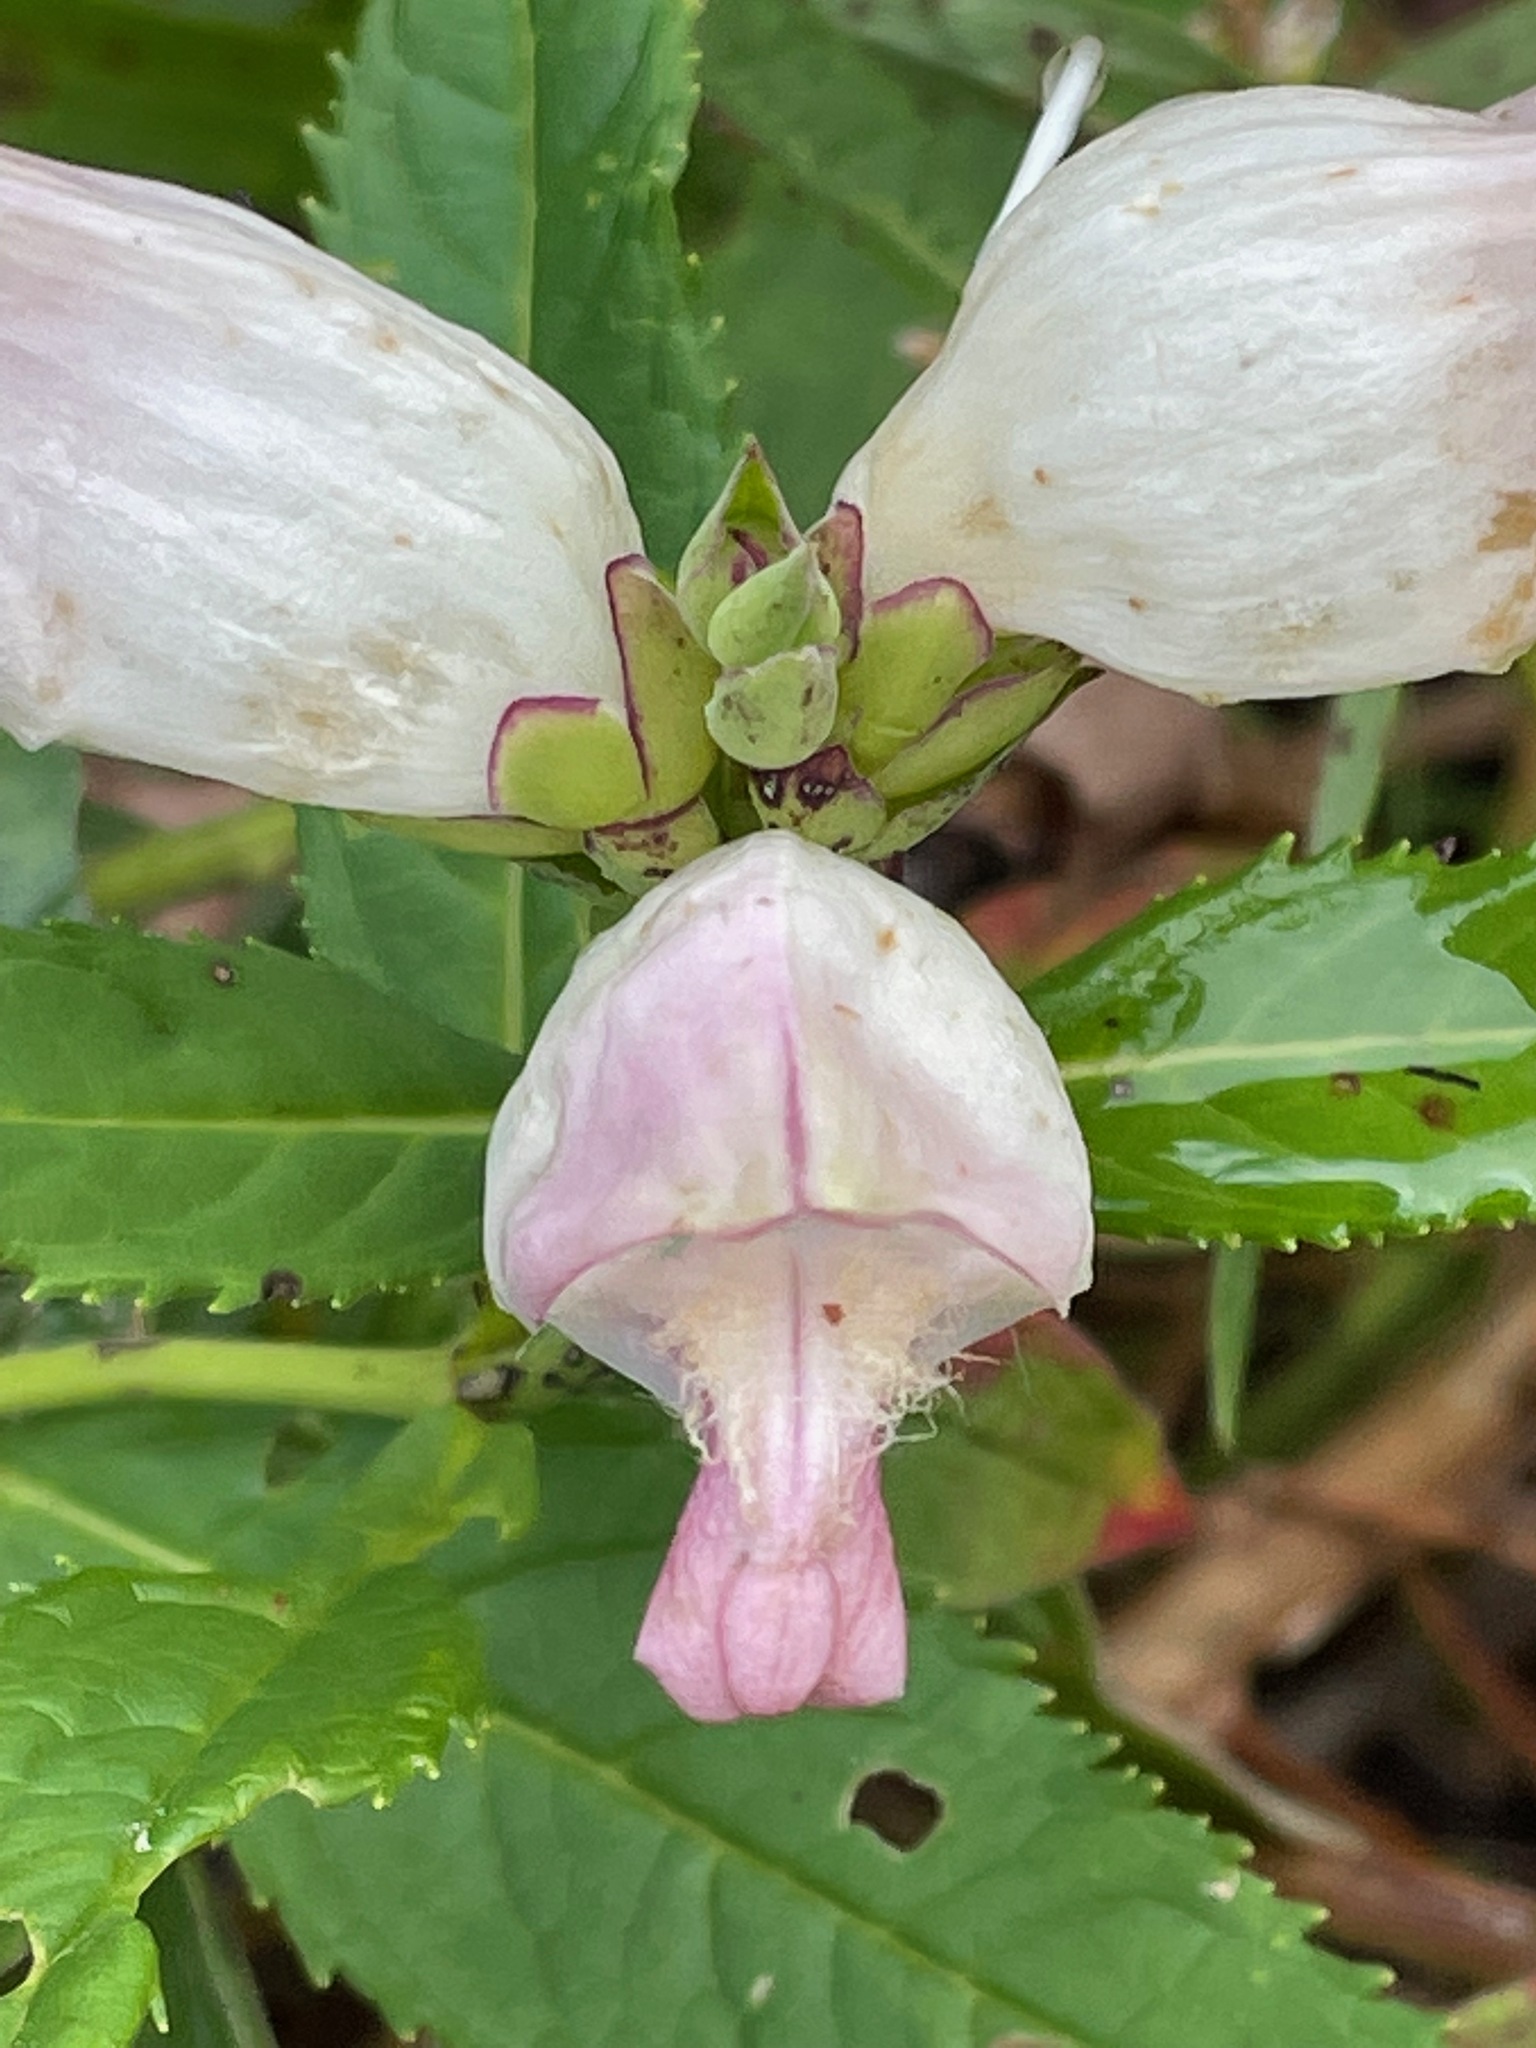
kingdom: Plantae
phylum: Tracheophyta
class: Magnoliopsida
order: Lamiales
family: Plantaginaceae
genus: Chelone
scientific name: Chelone glabra
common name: Snakehead
